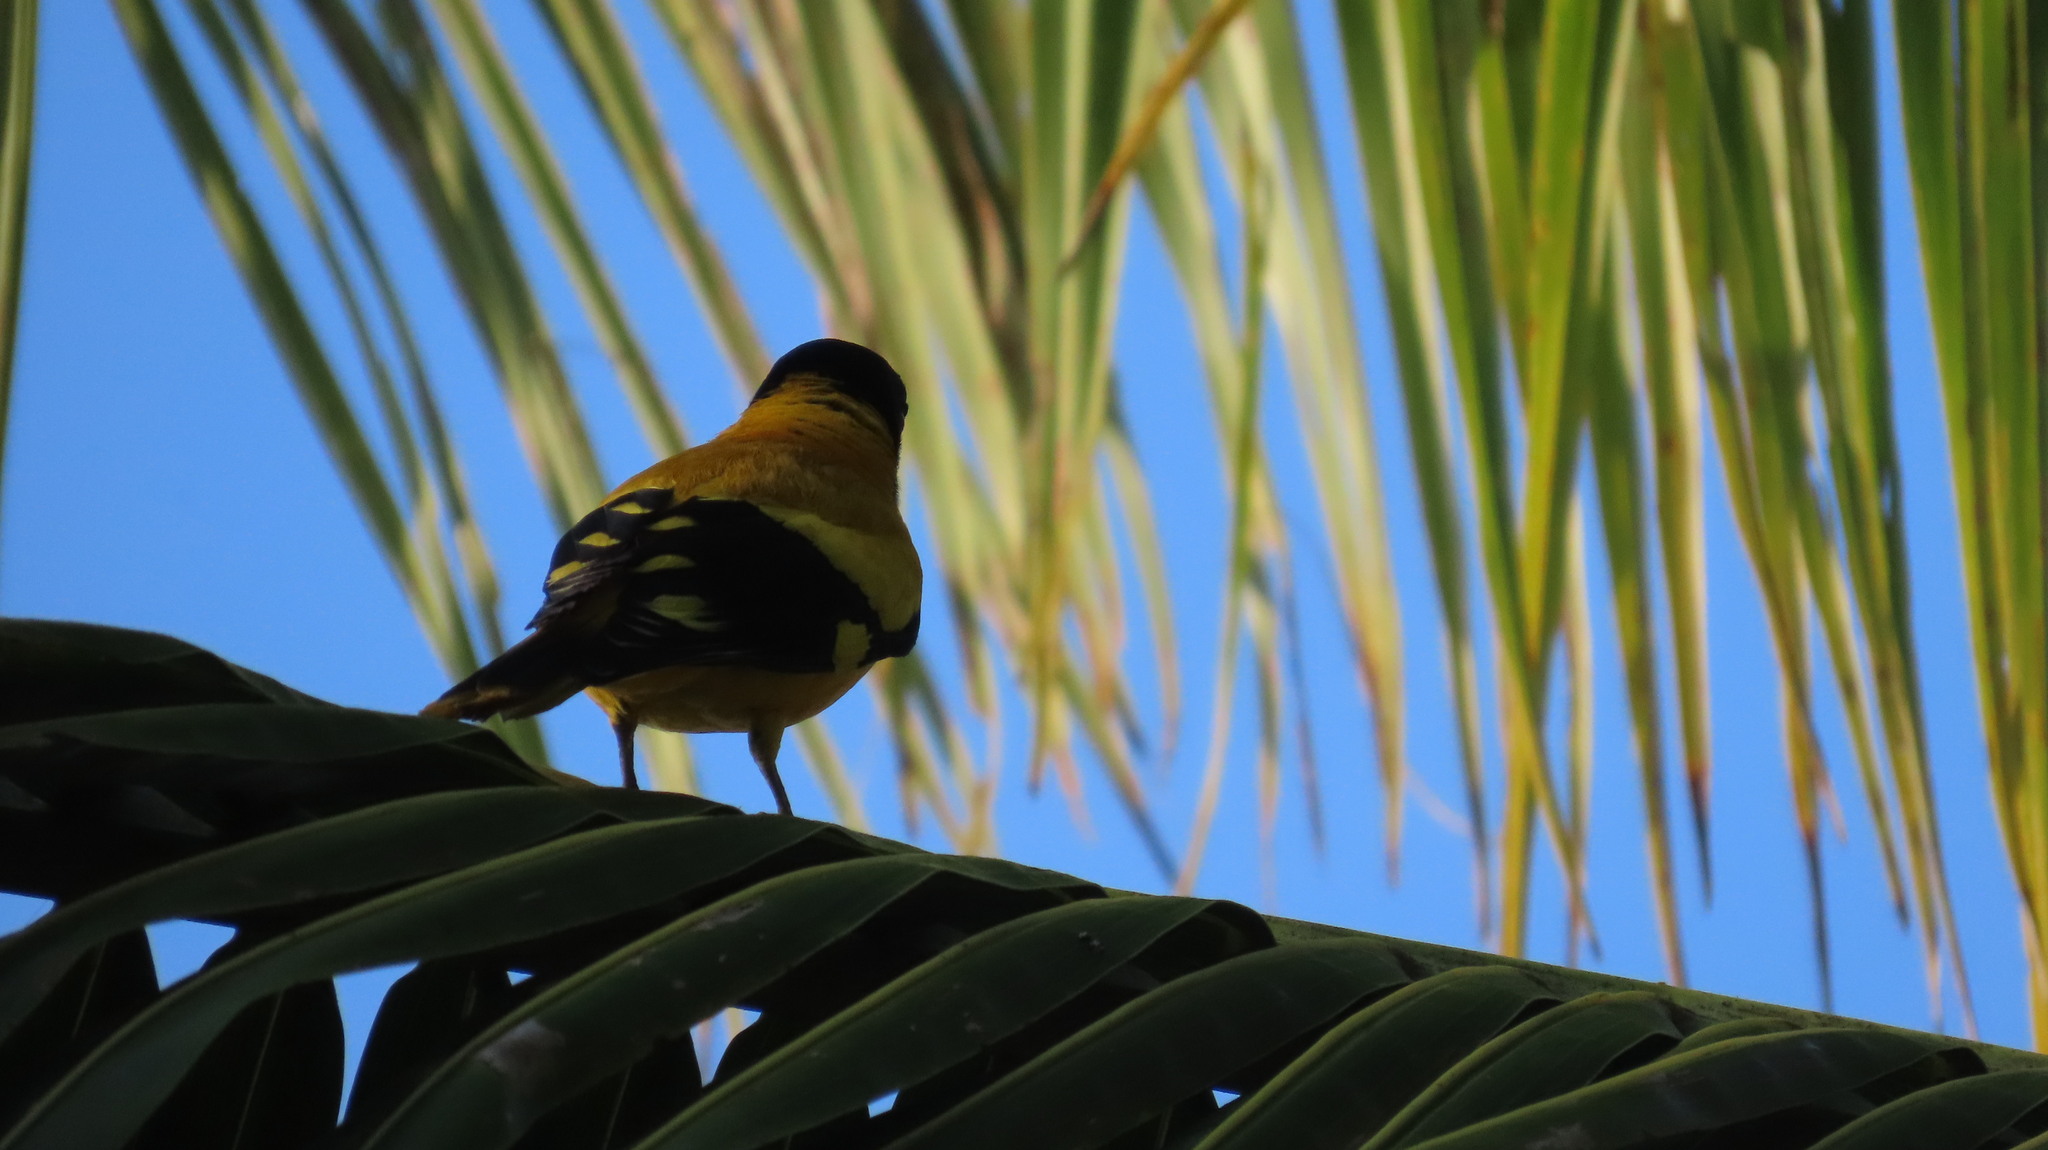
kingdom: Animalia
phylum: Chordata
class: Aves
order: Passeriformes
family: Oriolidae
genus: Oriolus
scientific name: Oriolus xanthornus
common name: Black-hooded oriole
